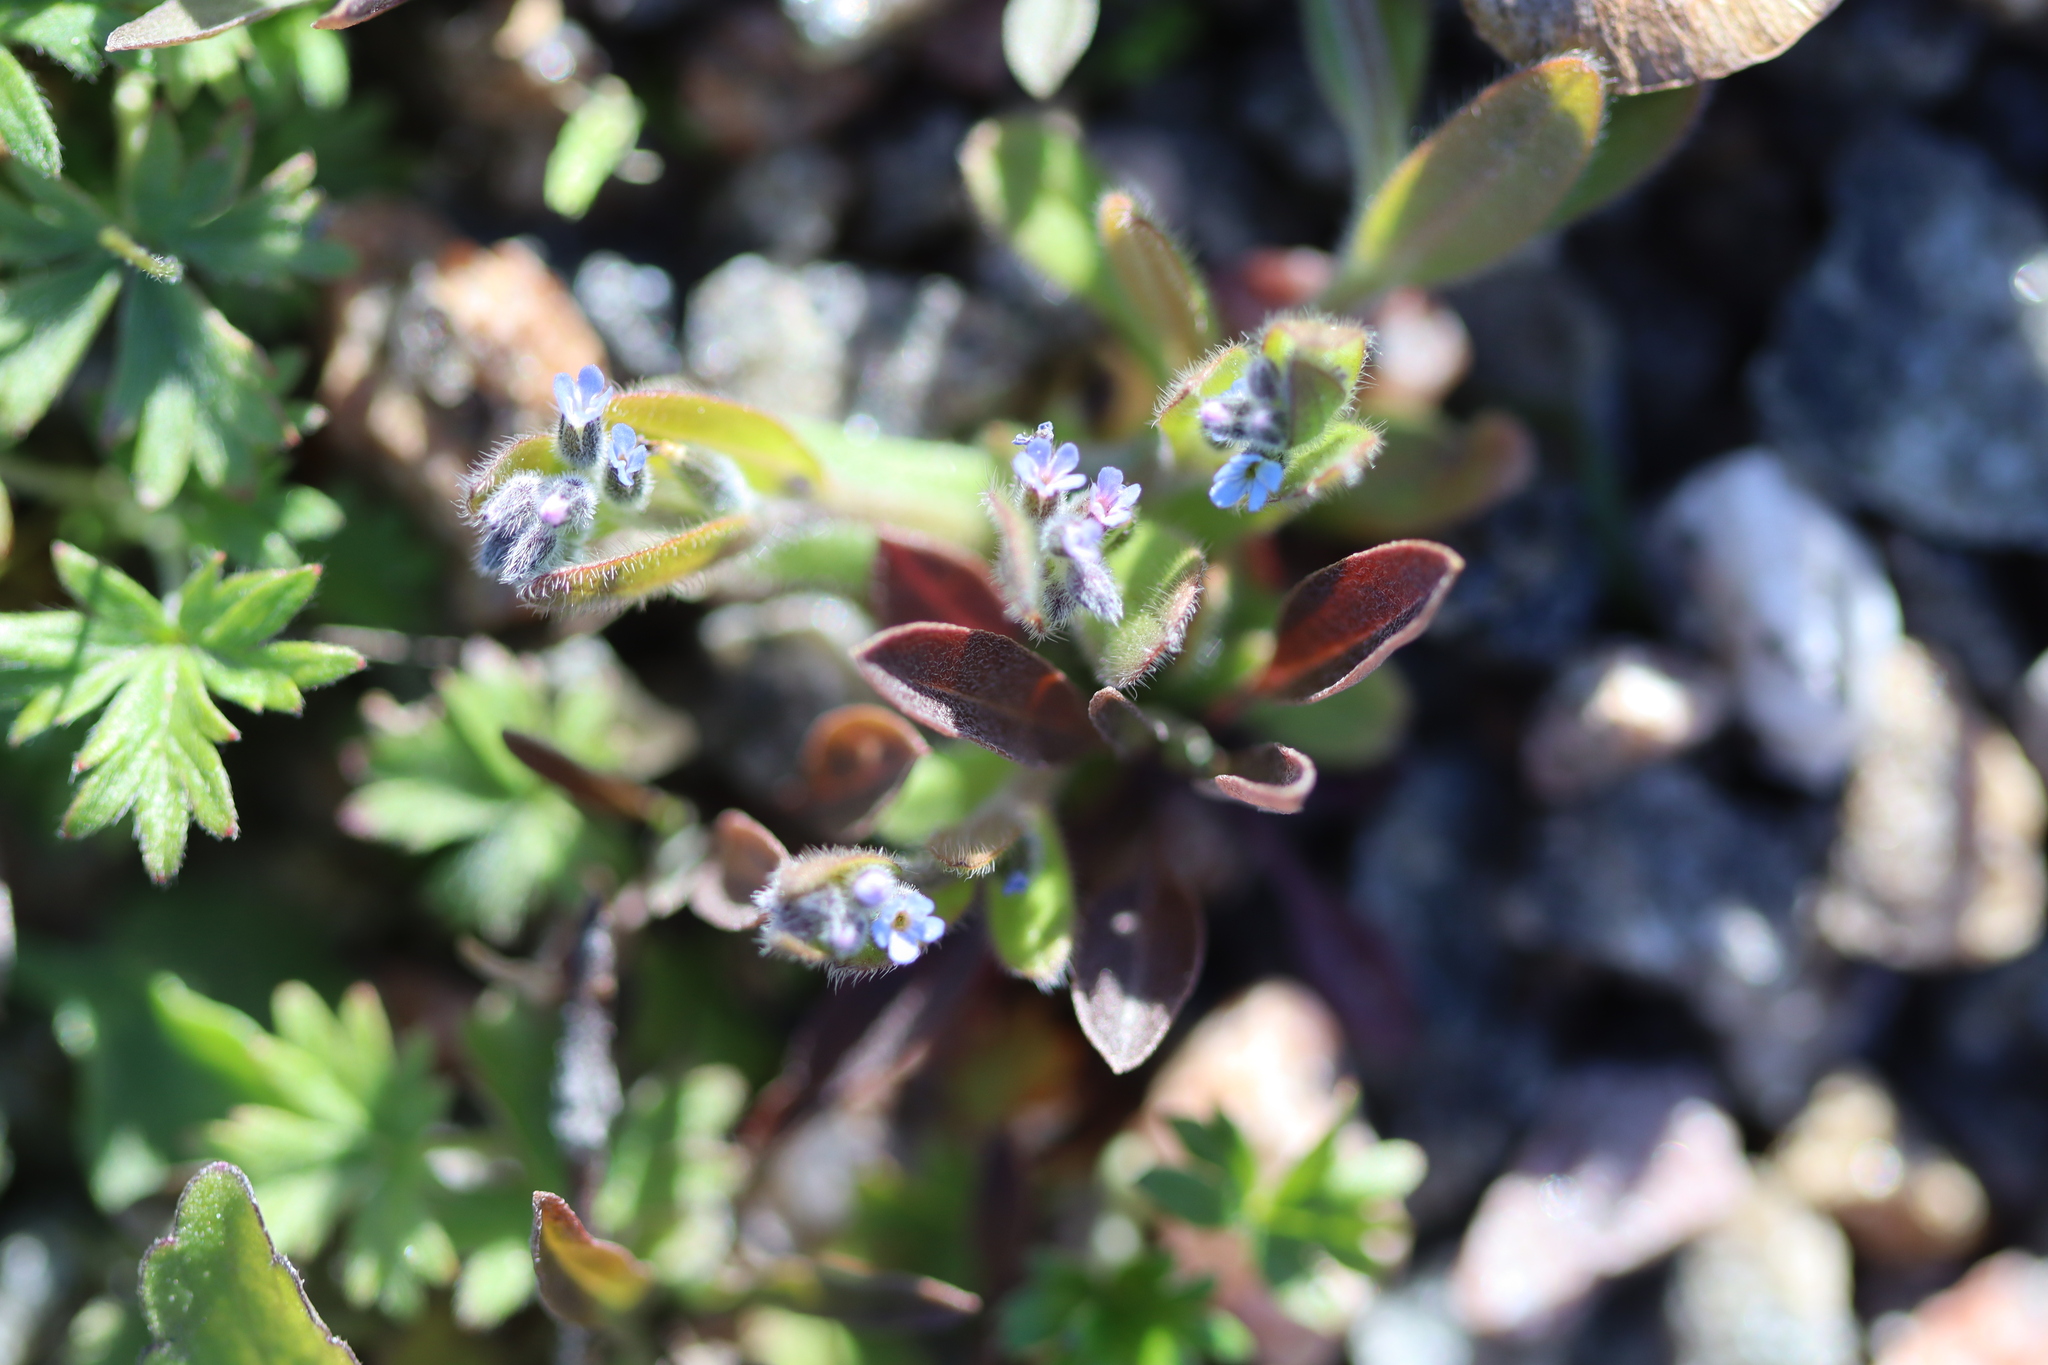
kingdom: Plantae
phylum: Tracheophyta
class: Magnoliopsida
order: Boraginales
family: Boraginaceae
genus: Myosotis
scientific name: Myosotis stricta
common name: Strict forget-me-not
